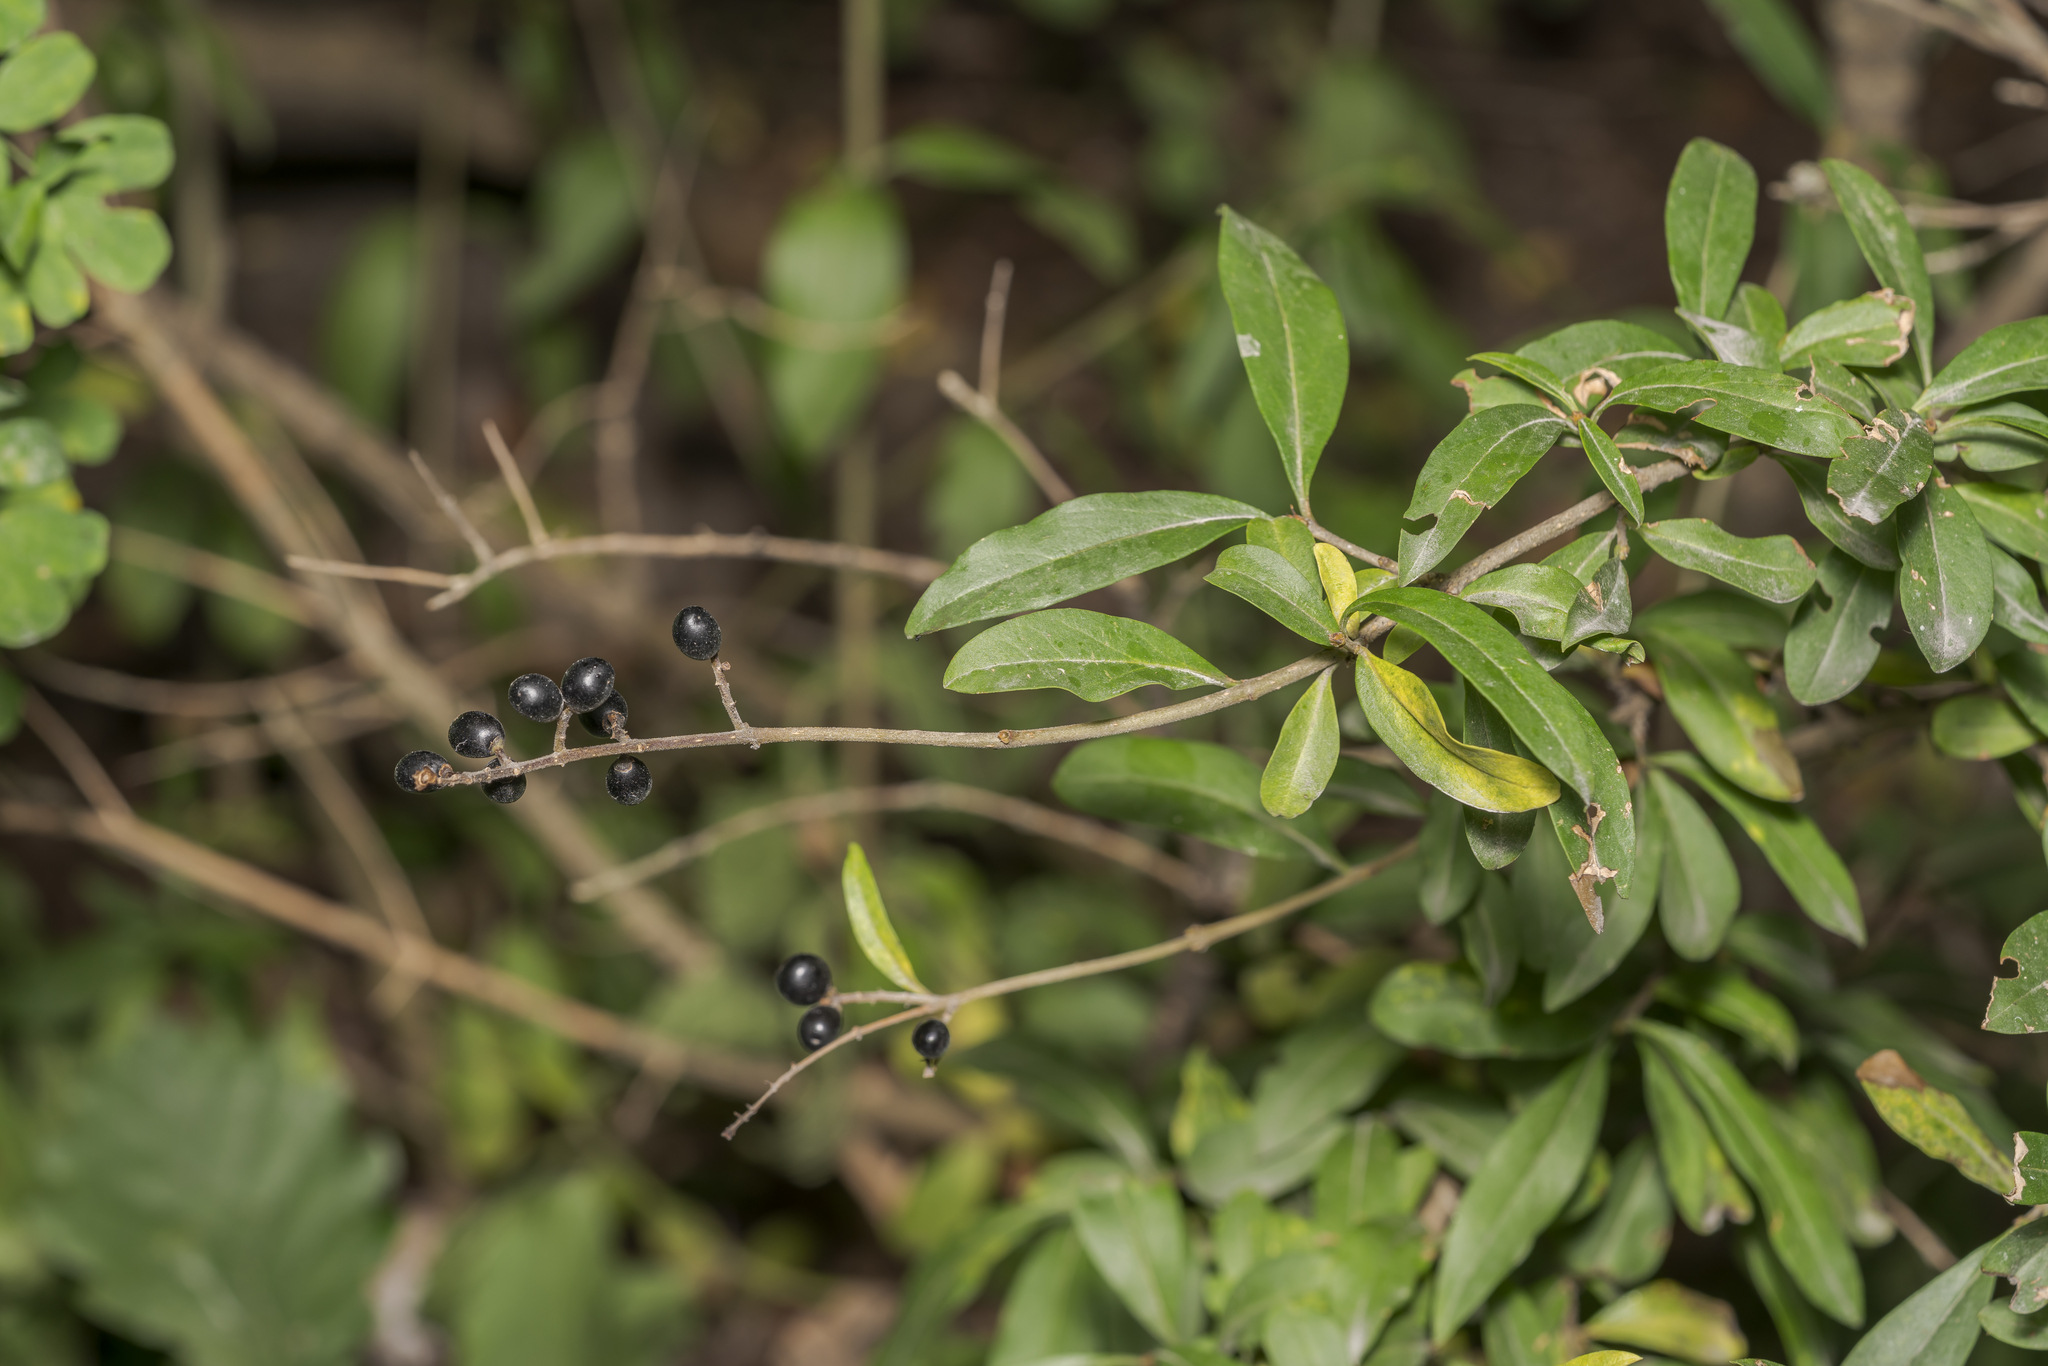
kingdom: Plantae
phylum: Tracheophyta
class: Magnoliopsida
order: Lamiales
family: Oleaceae
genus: Ligustrum
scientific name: Ligustrum vulgare
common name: Wild privet
